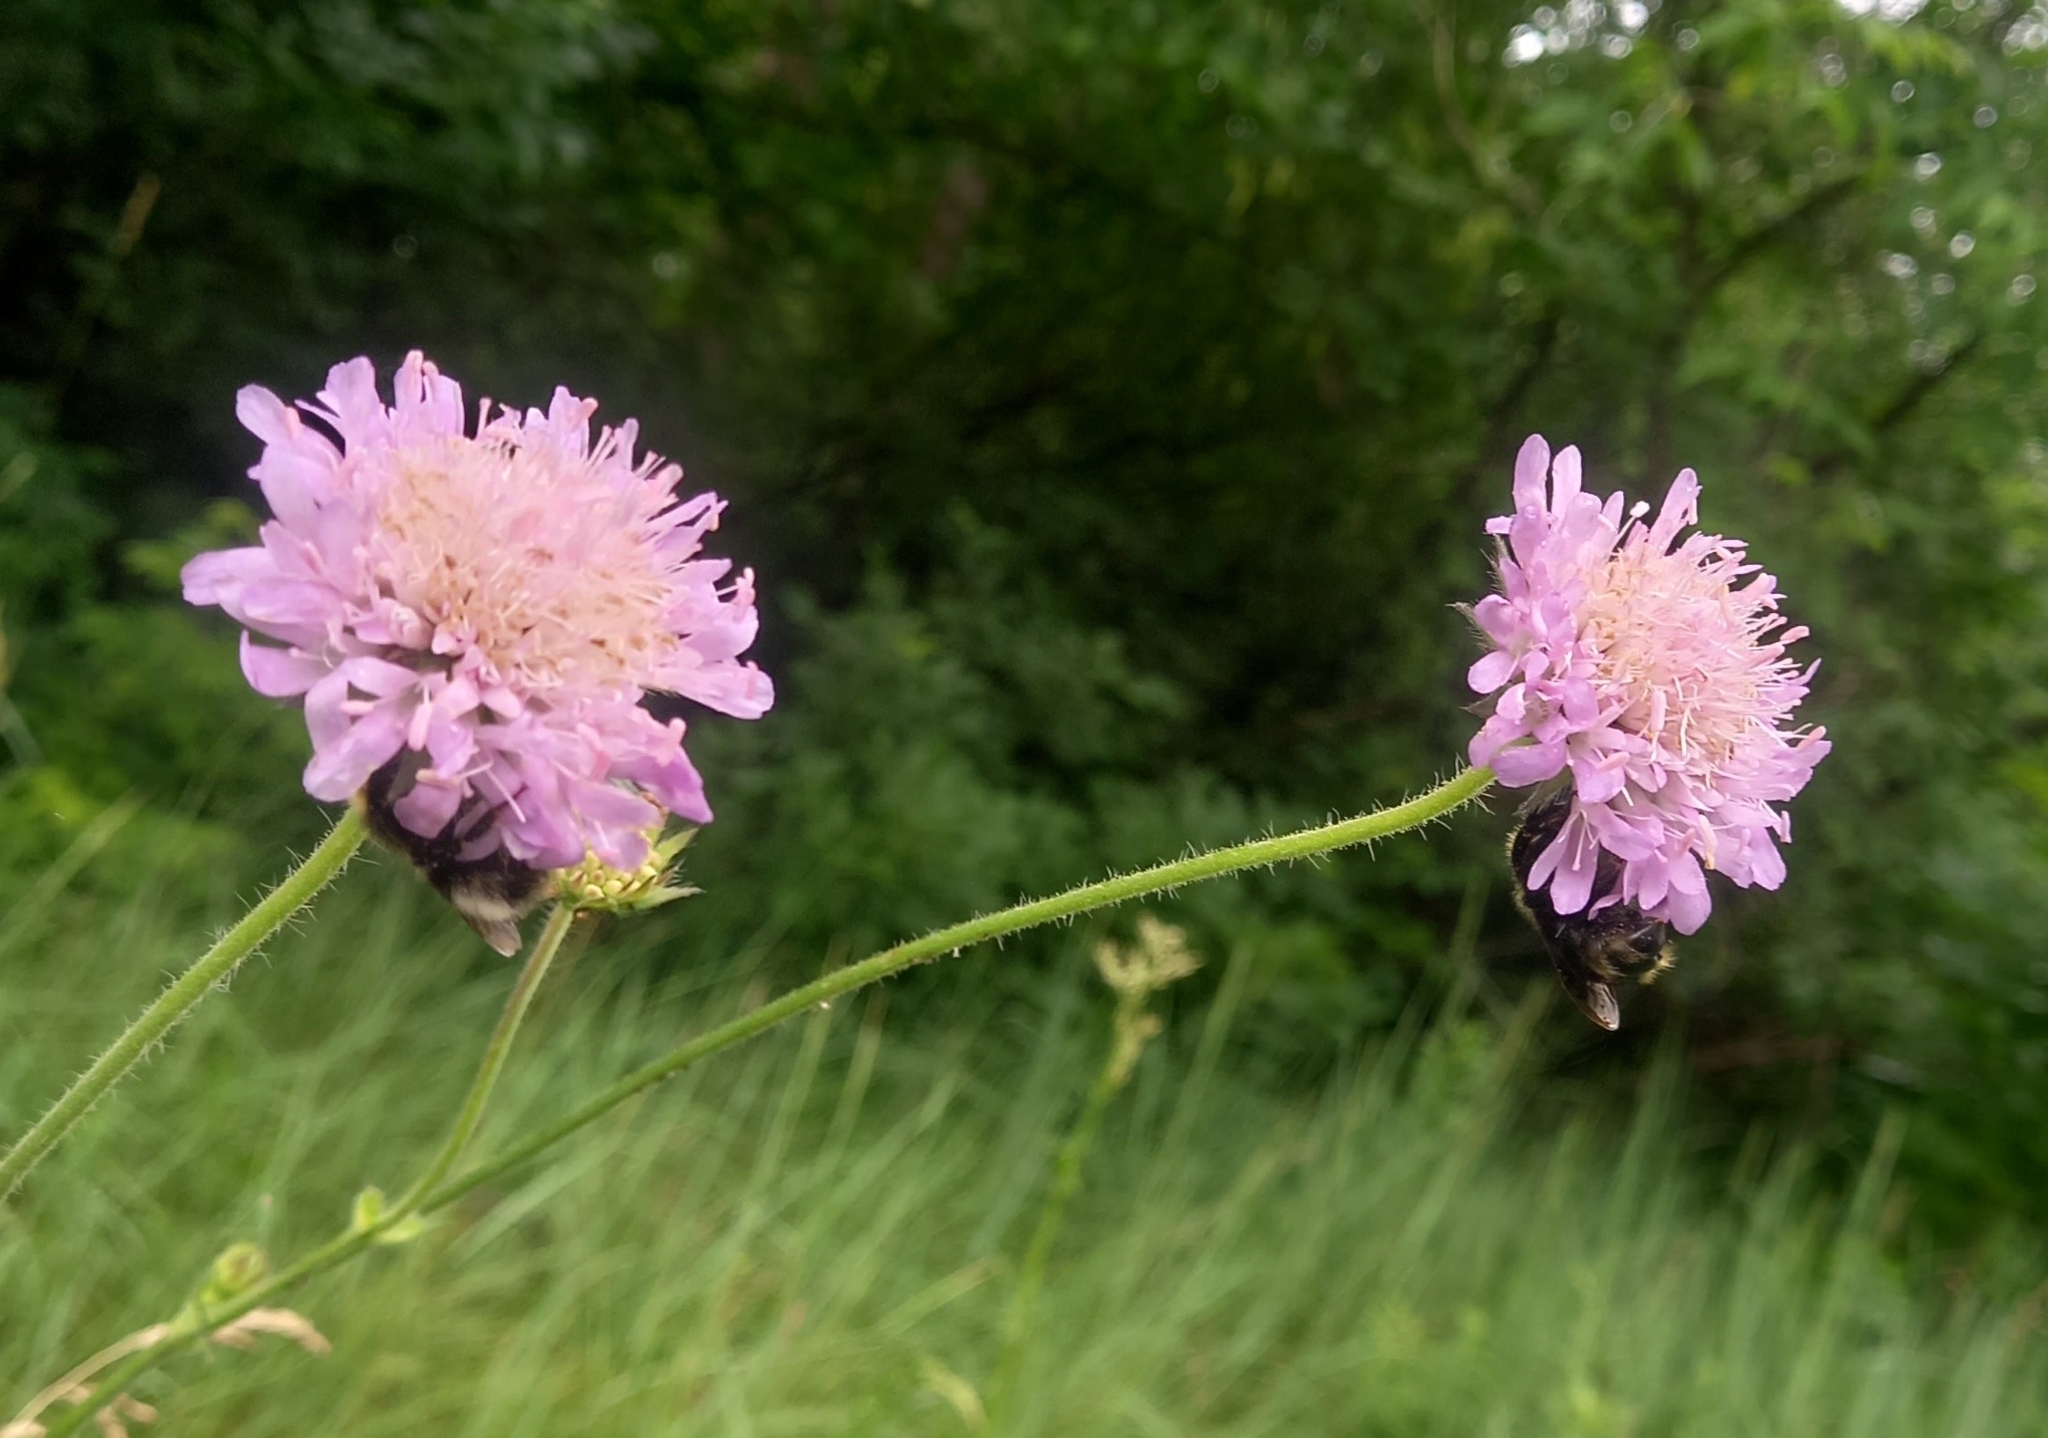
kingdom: Plantae
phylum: Tracheophyta
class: Magnoliopsida
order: Dipsacales
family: Caprifoliaceae
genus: Knautia
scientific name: Knautia arvensis
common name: Field scabiosa
